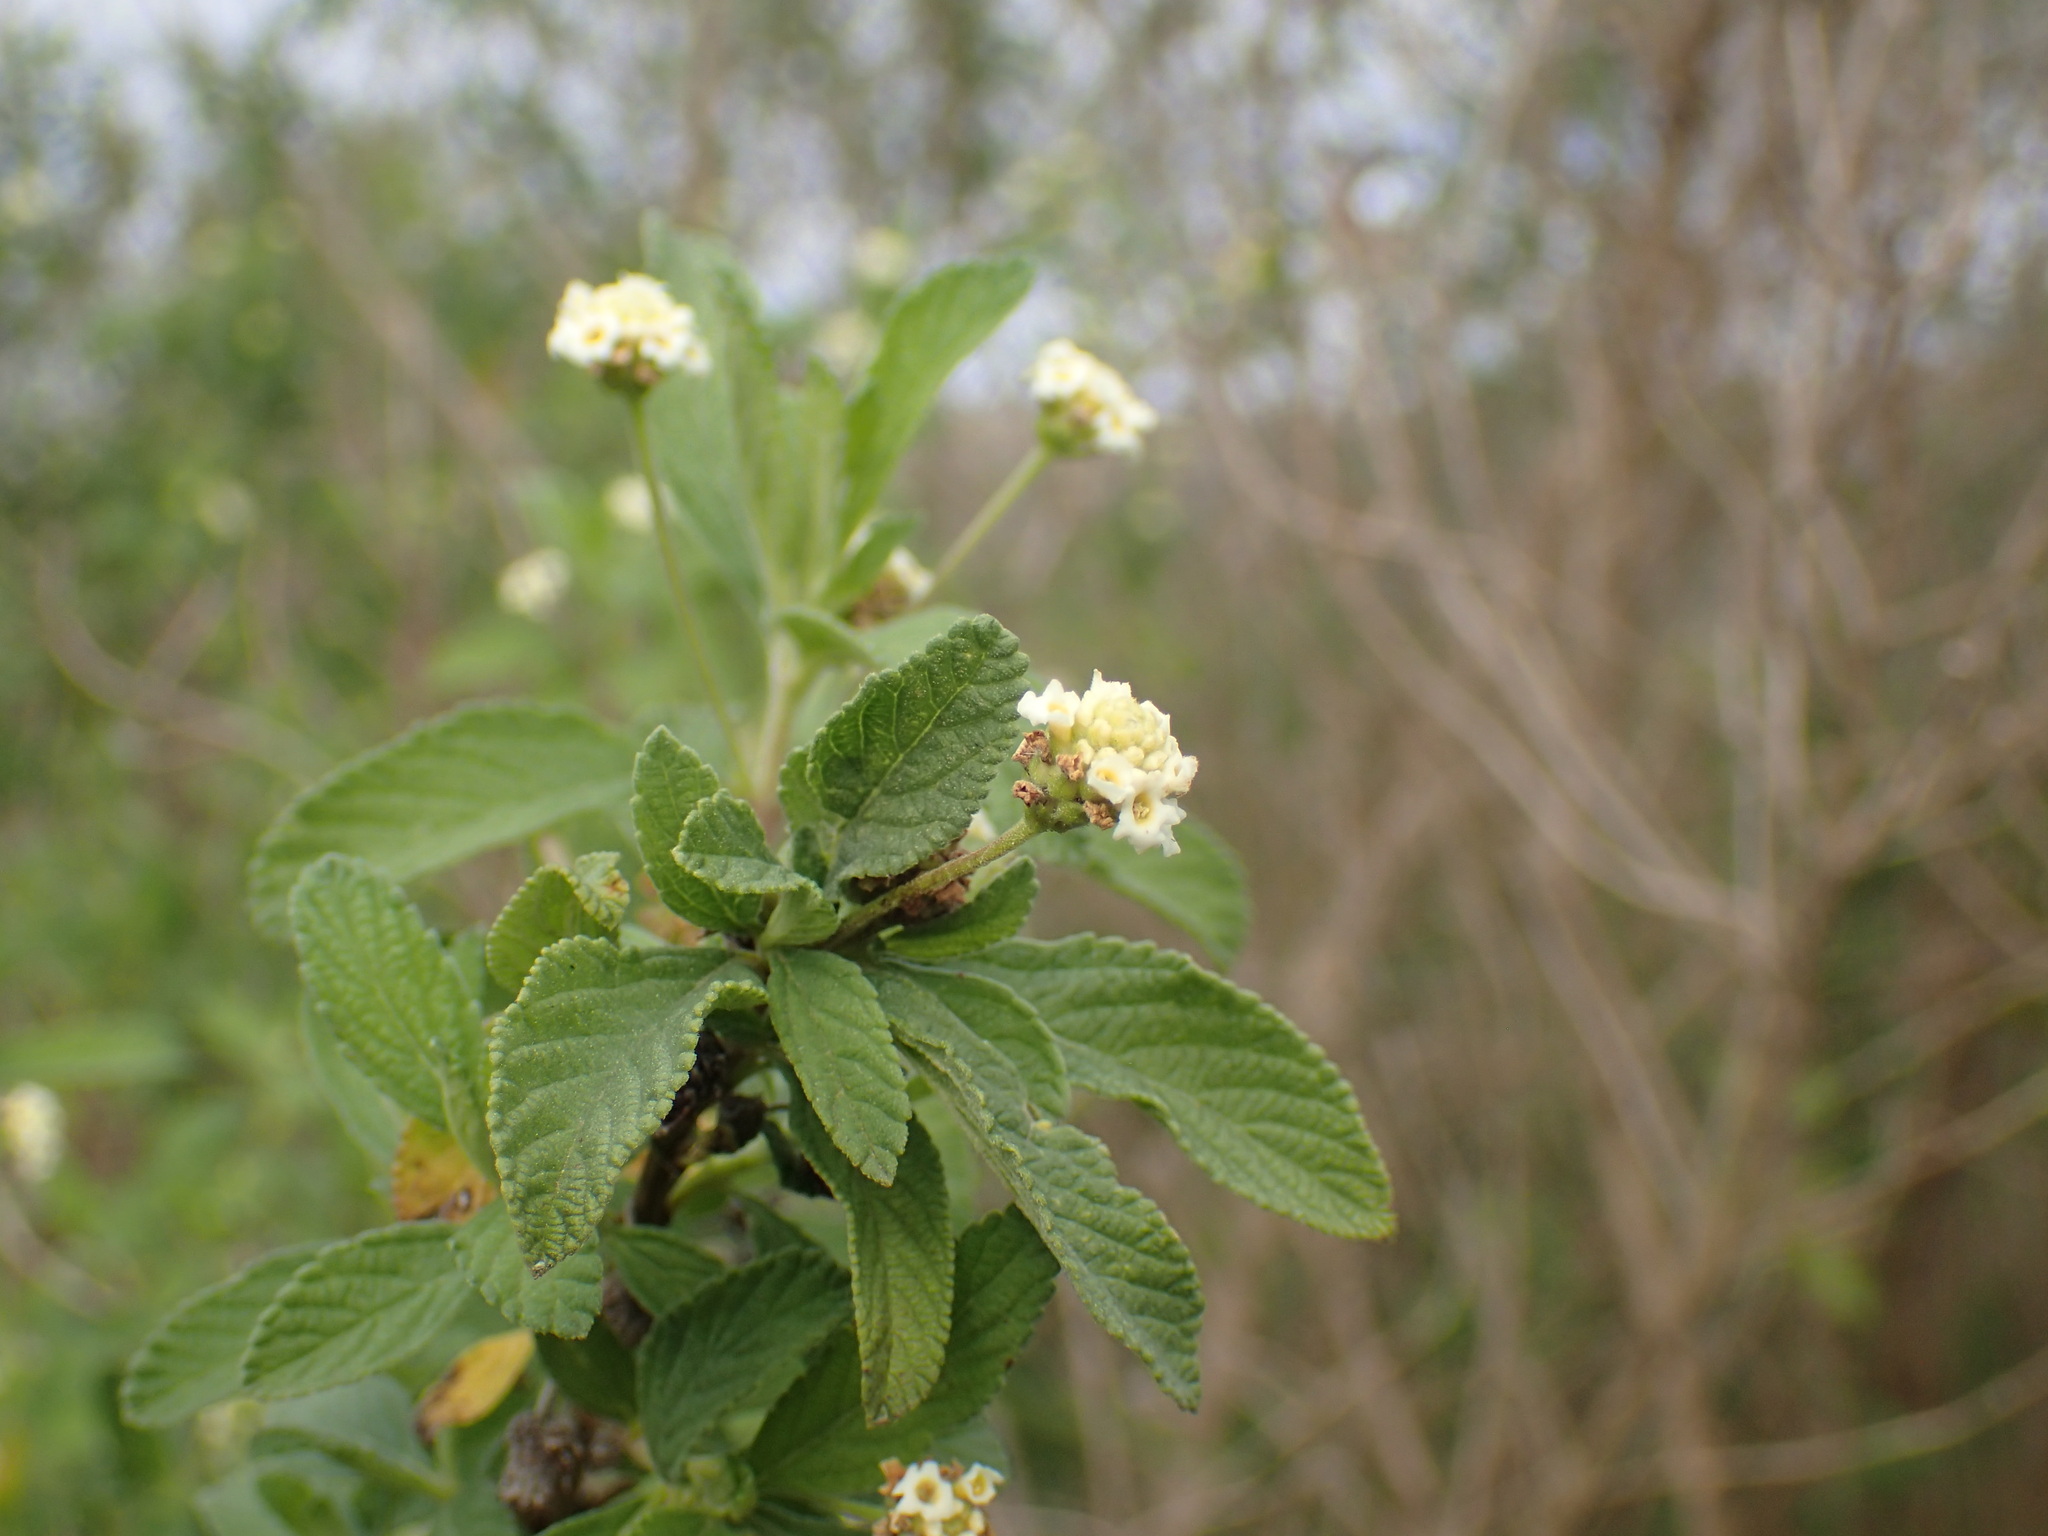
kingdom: Plantae
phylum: Tracheophyta
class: Magnoliopsida
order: Lamiales
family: Verbenaceae
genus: Lippia
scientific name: Lippia javanica
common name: Lemonbush
